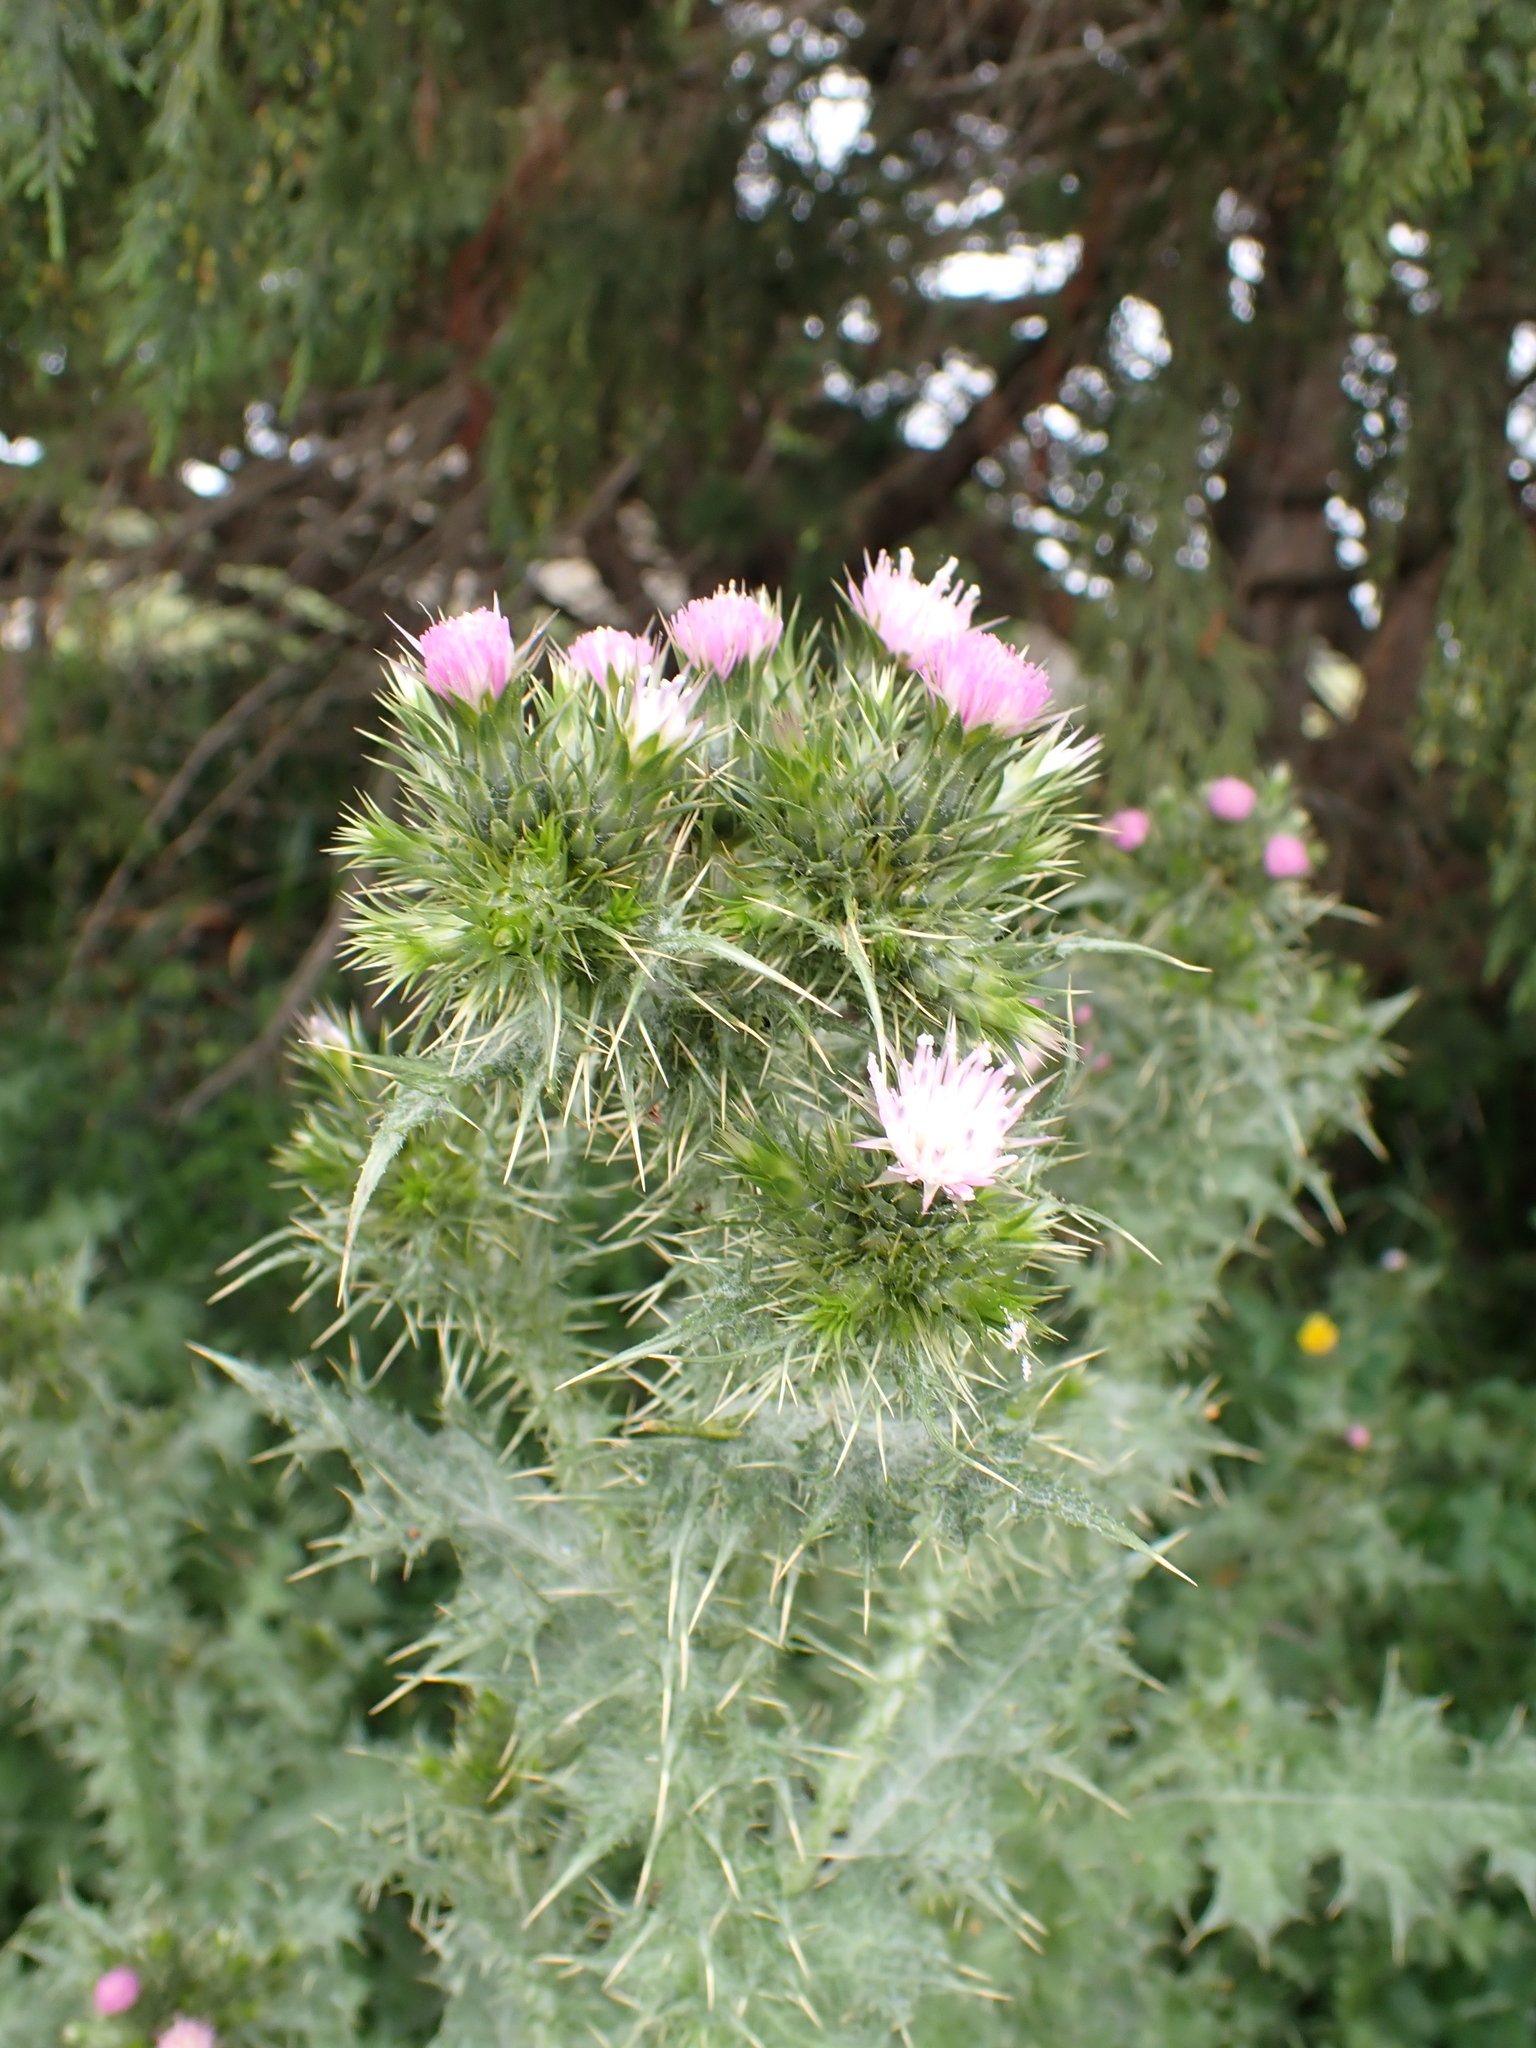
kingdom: Plantae
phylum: Tracheophyta
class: Magnoliopsida
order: Asterales
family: Asteraceae
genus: Carduus
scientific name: Carduus tenuiflorus
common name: Slender thistle
